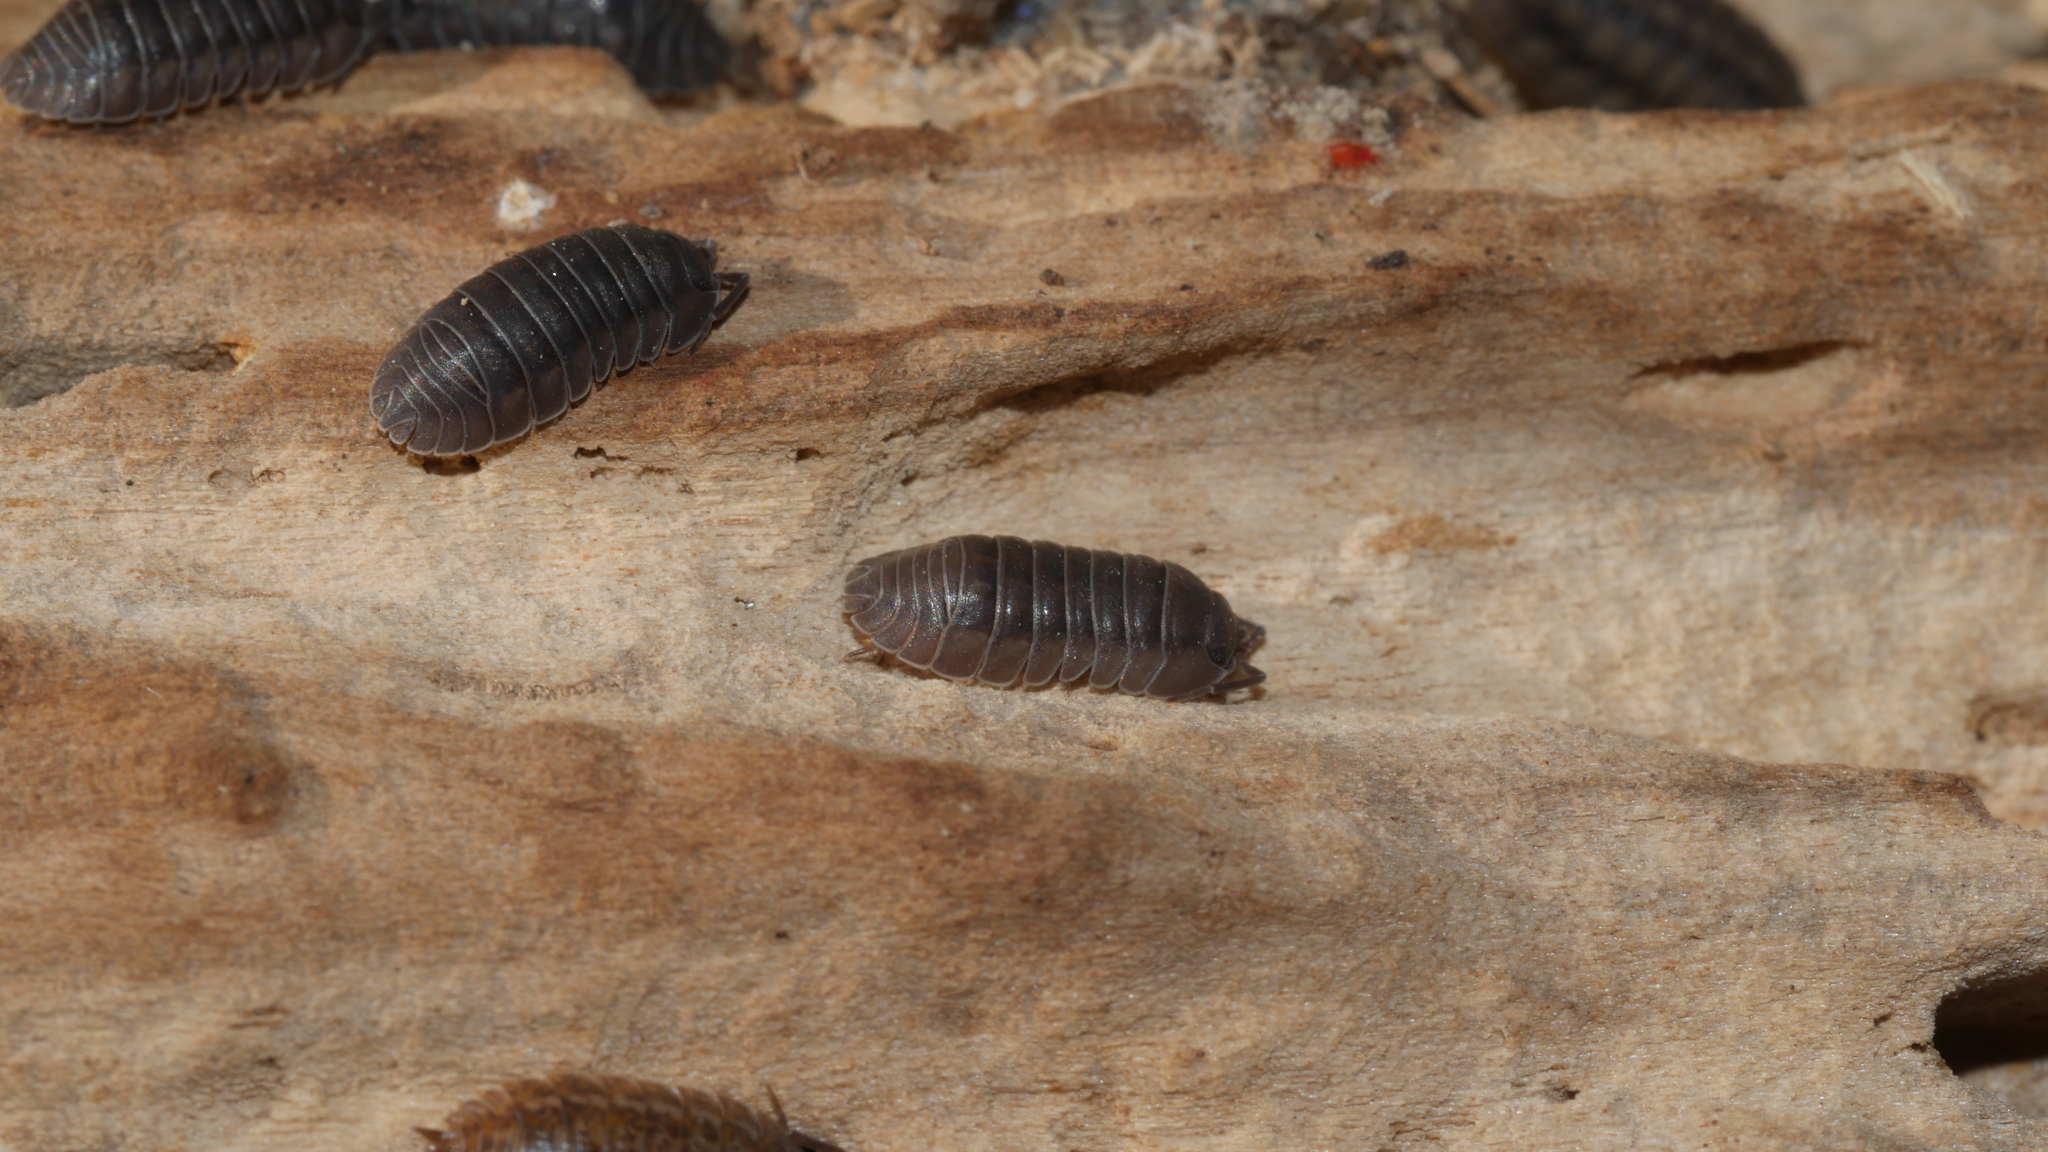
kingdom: Animalia
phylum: Arthropoda
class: Malacostraca
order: Isopoda
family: Armadillidiidae
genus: Armadillidium
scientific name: Armadillidium nasatum
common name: Isopod
